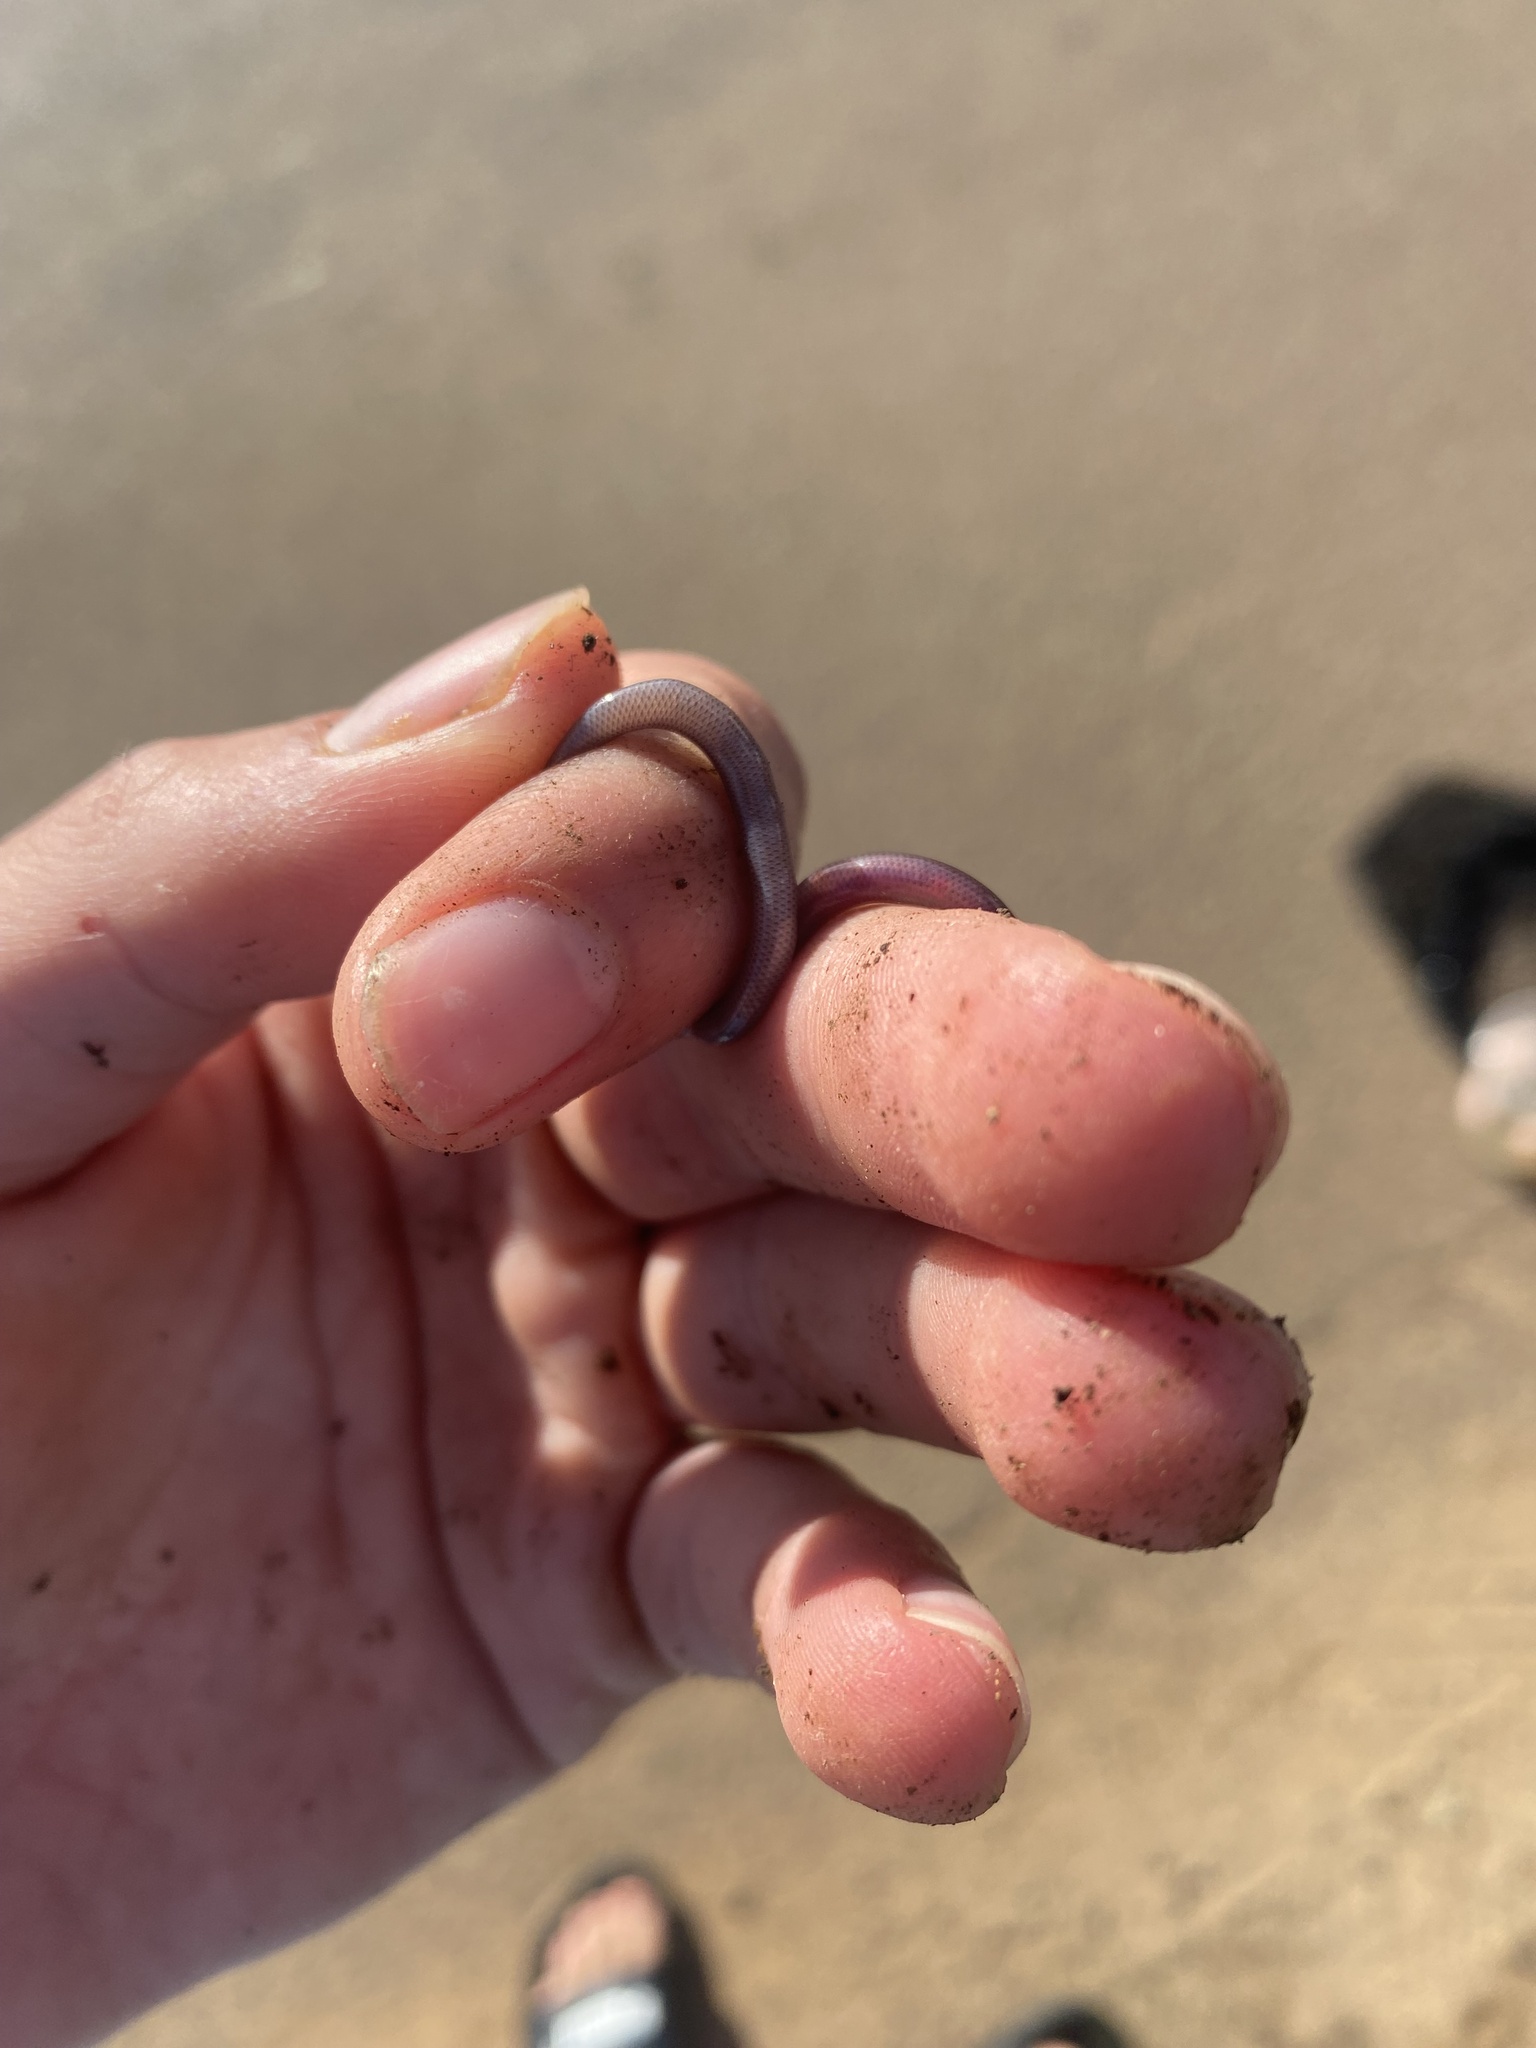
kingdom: Animalia
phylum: Chordata
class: Squamata
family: Typhlopidae
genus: Indotyphlops
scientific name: Indotyphlops braminus
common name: Brahminy blindsnake
